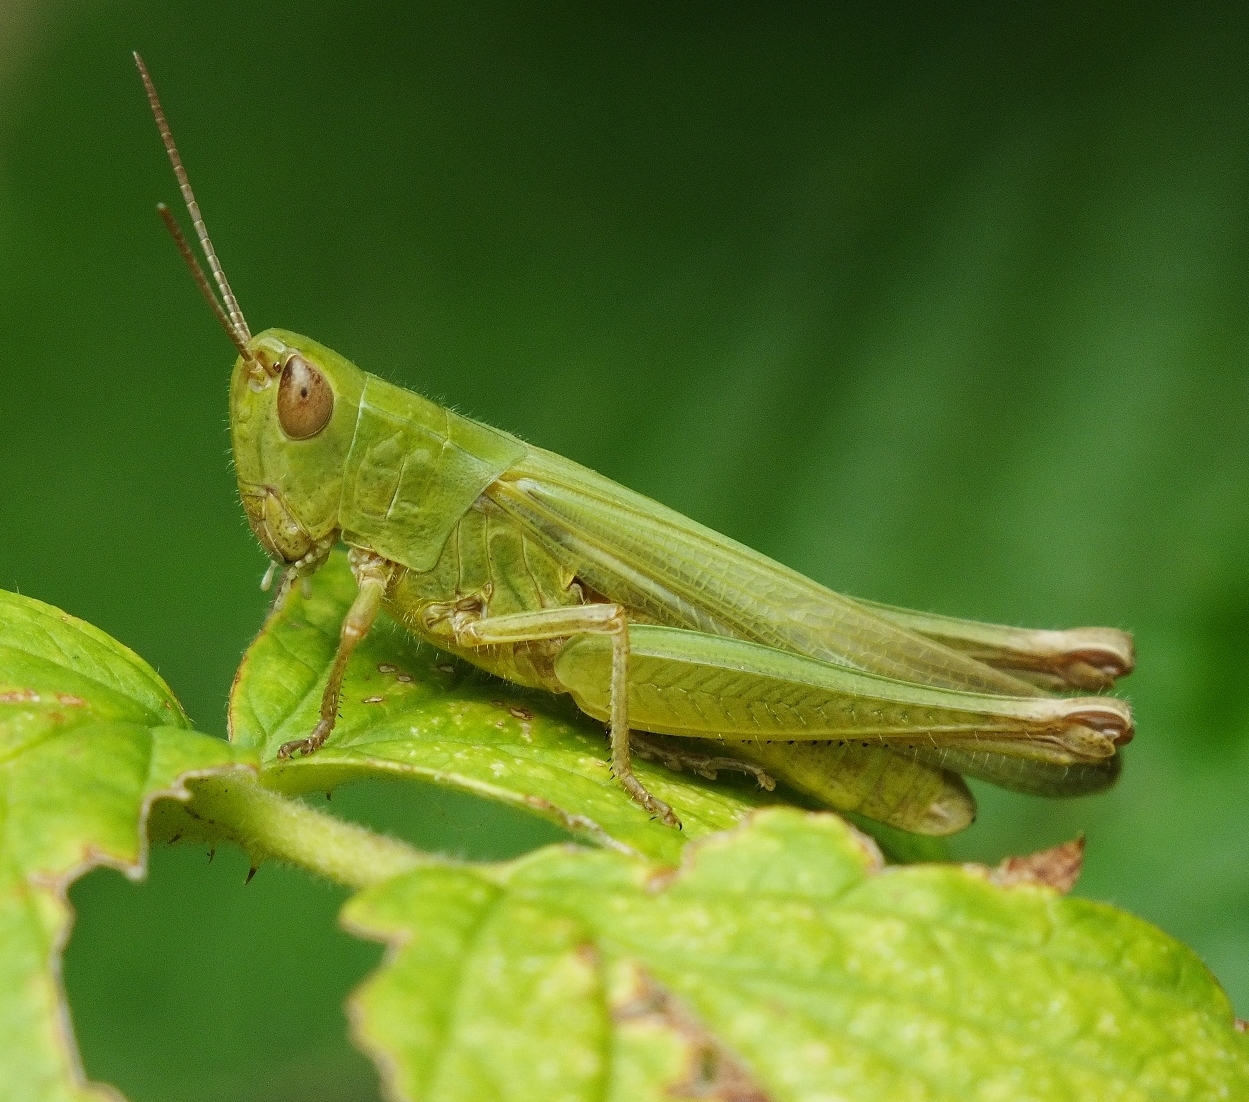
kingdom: Animalia
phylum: Arthropoda
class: Insecta
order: Orthoptera
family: Acrididae
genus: Chorthippus
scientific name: Chorthippus dichrous
